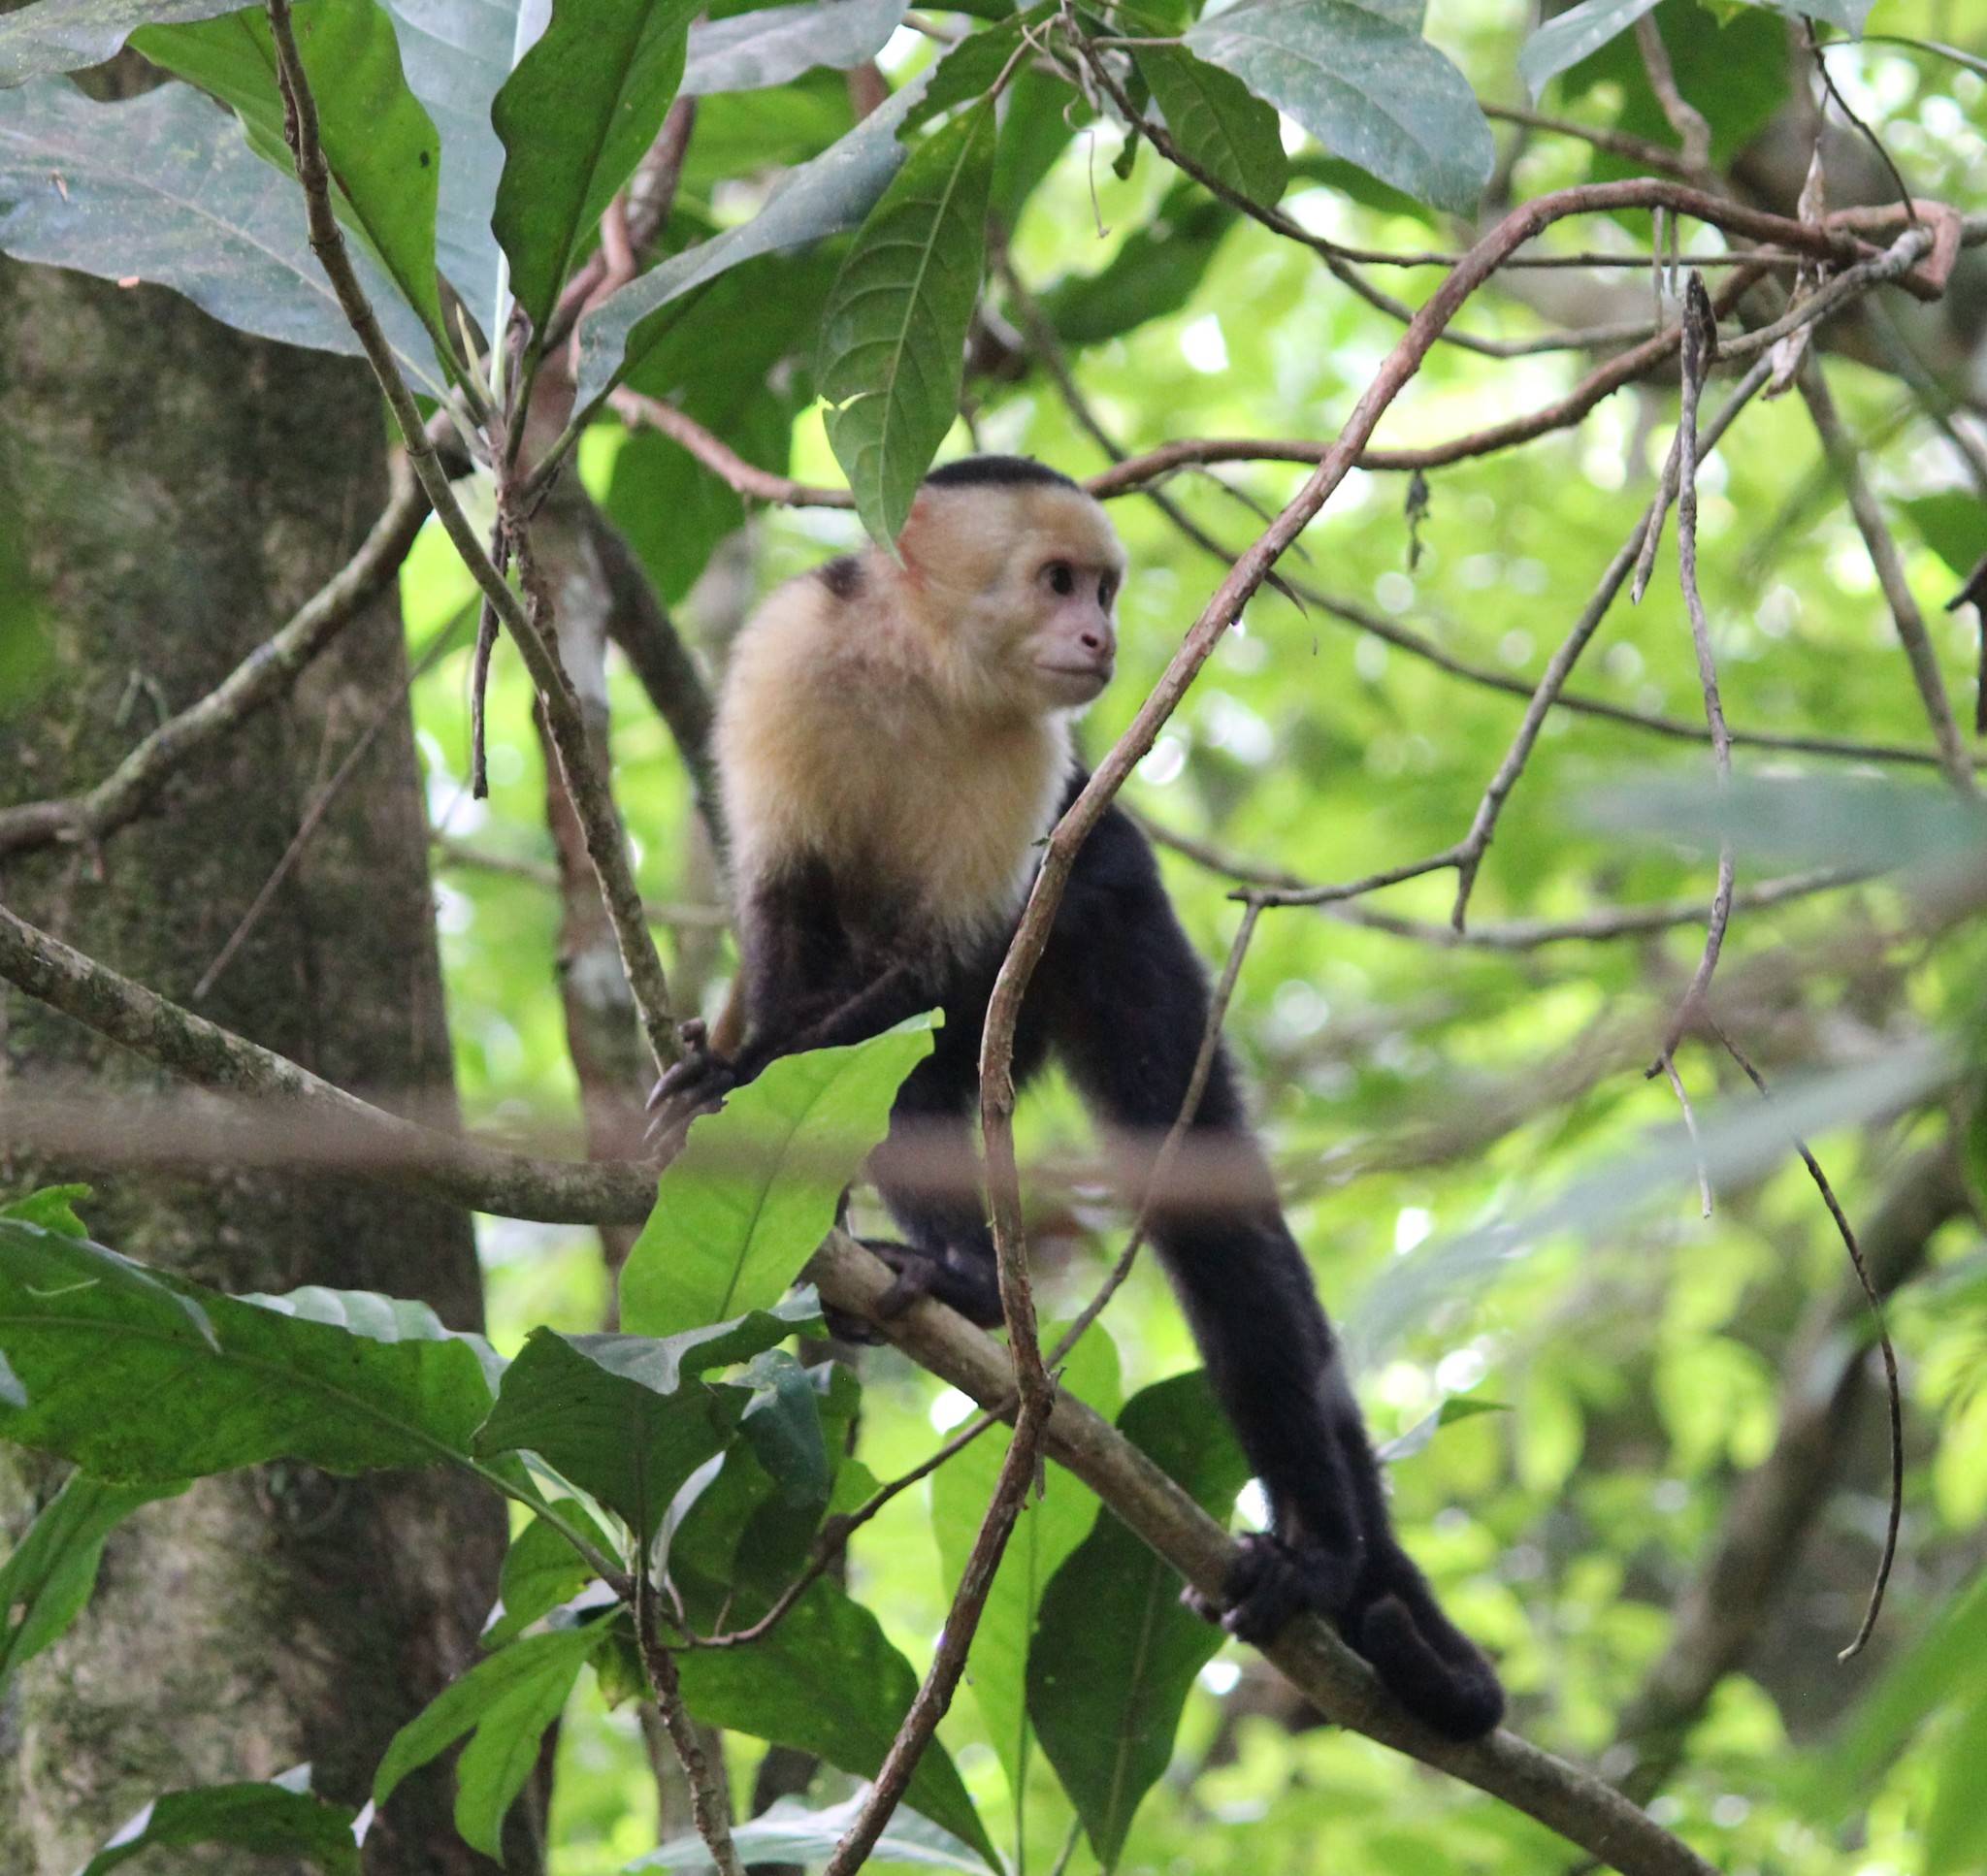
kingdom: Animalia
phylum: Chordata
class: Mammalia
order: Primates
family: Cebidae
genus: Cebus
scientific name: Cebus imitator
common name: Panamanian white-faced capuchin
